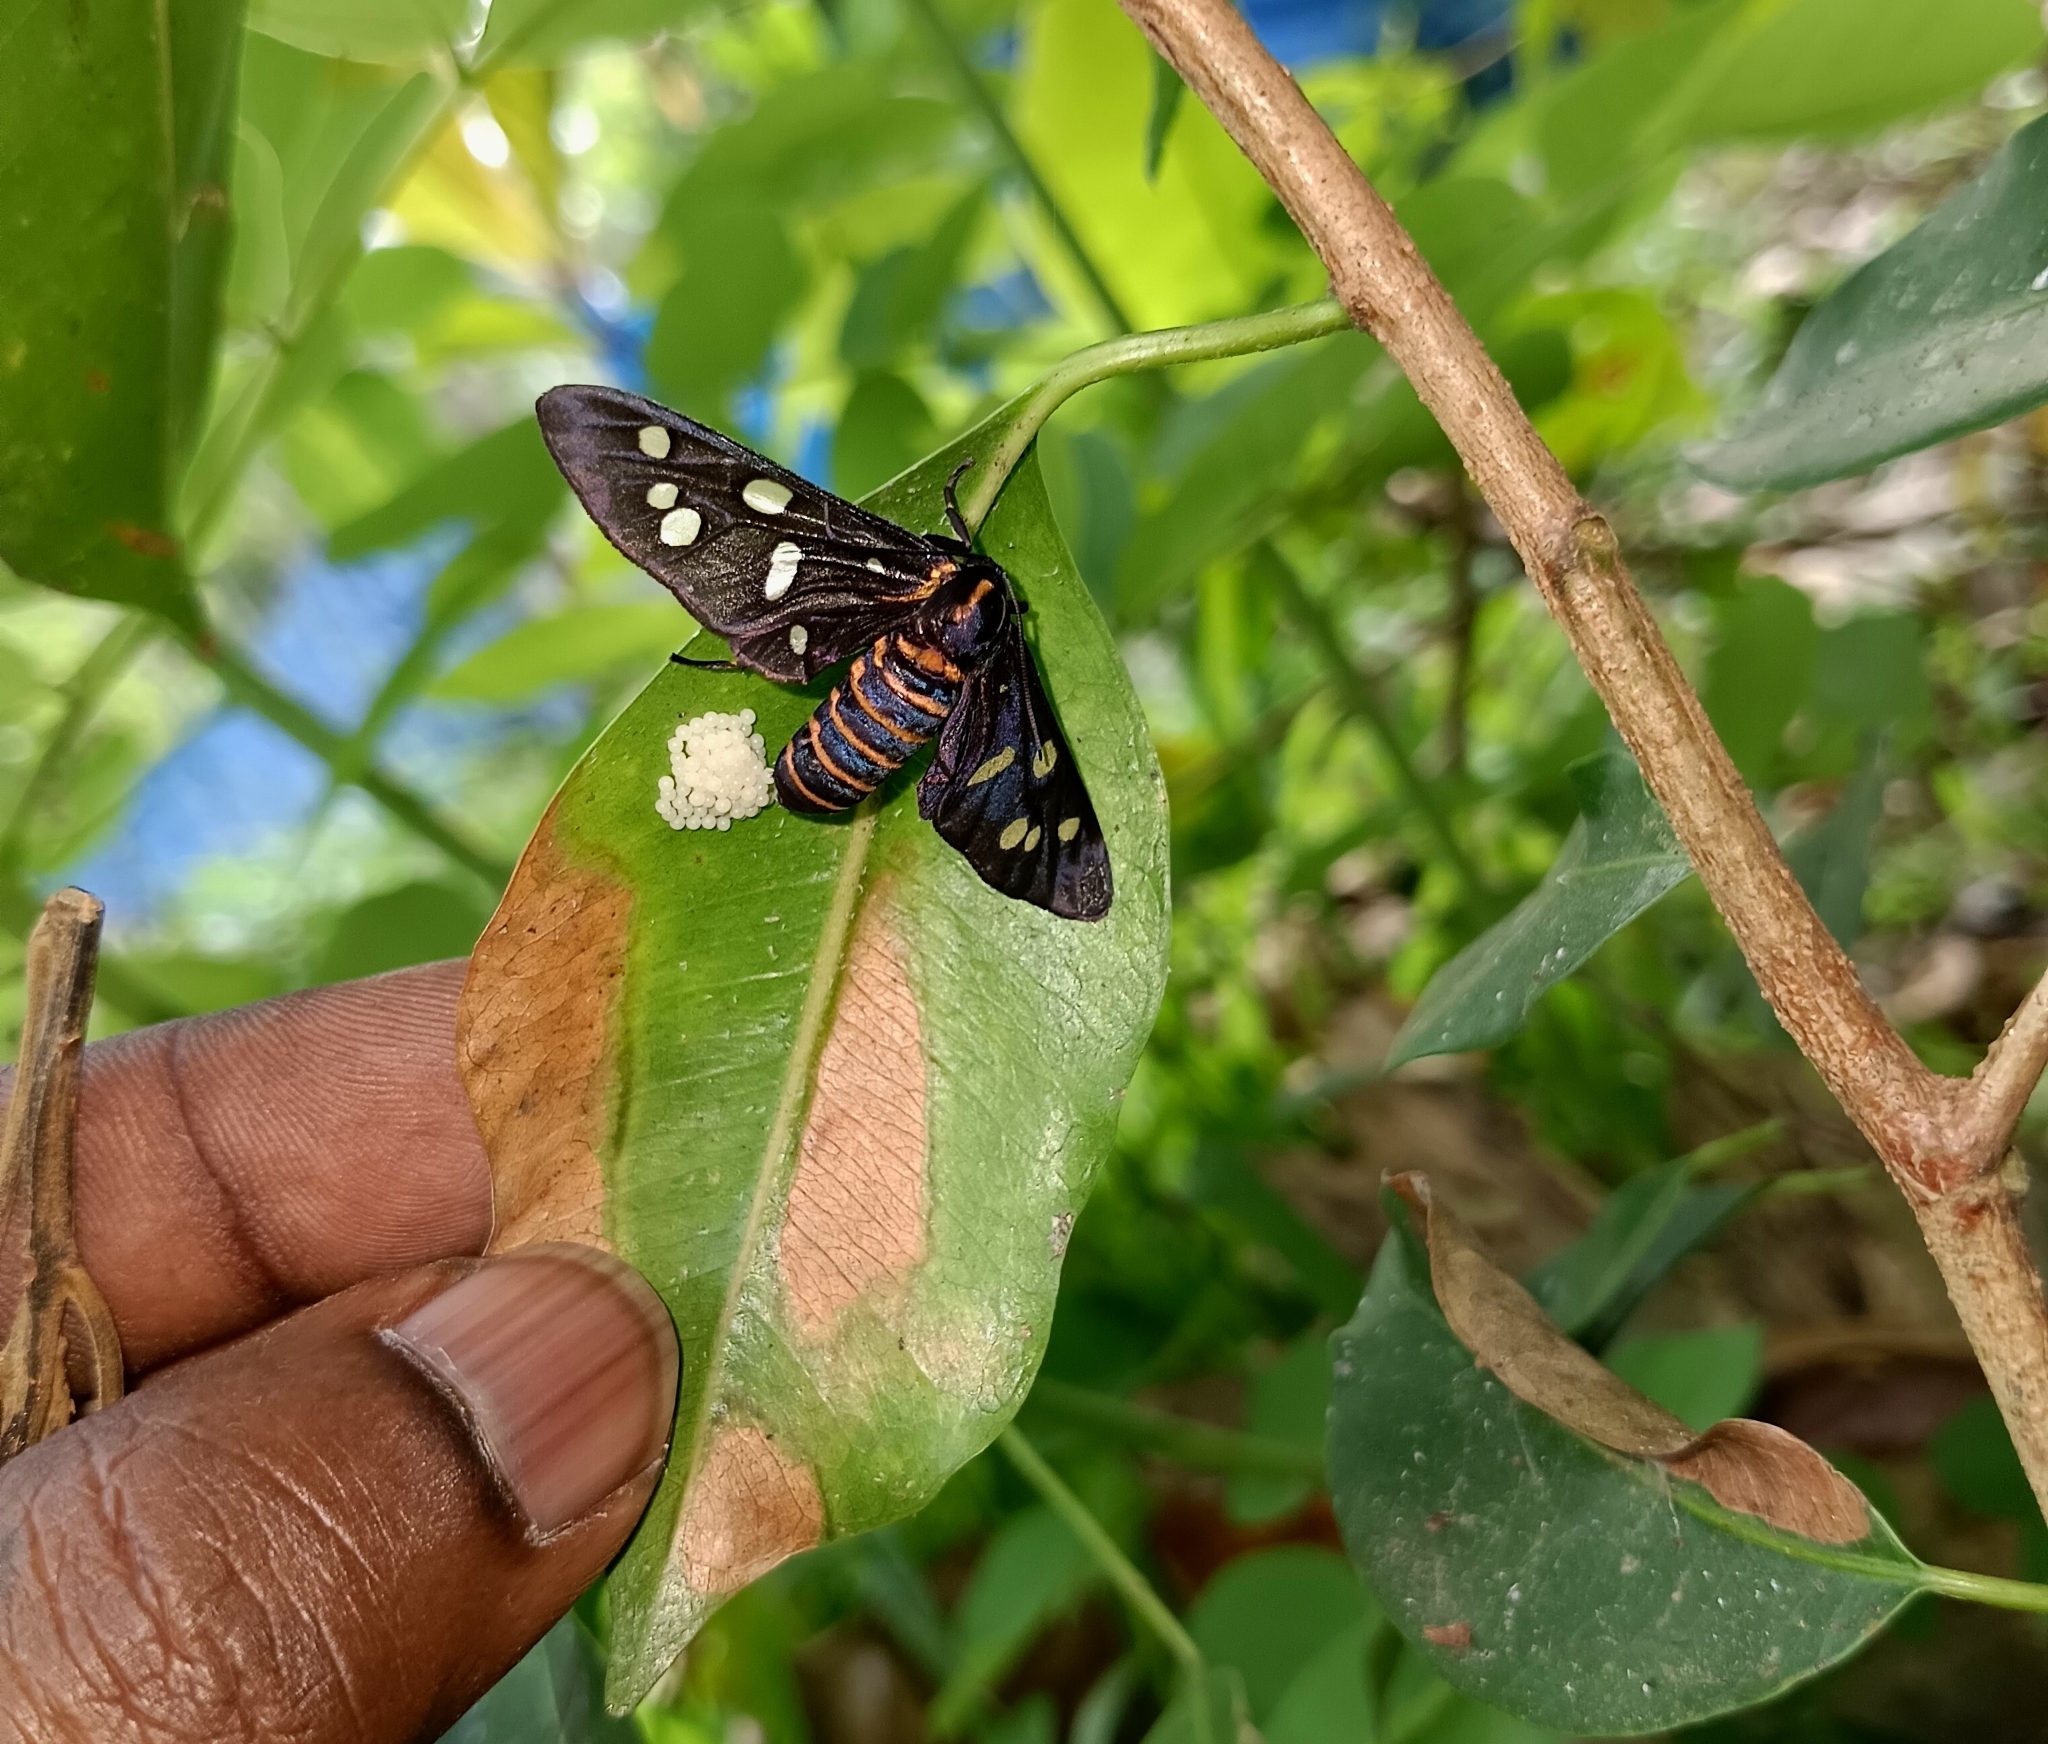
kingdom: Animalia
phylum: Arthropoda
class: Insecta
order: Lepidoptera
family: Erebidae
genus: Amata
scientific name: Amata passalis
